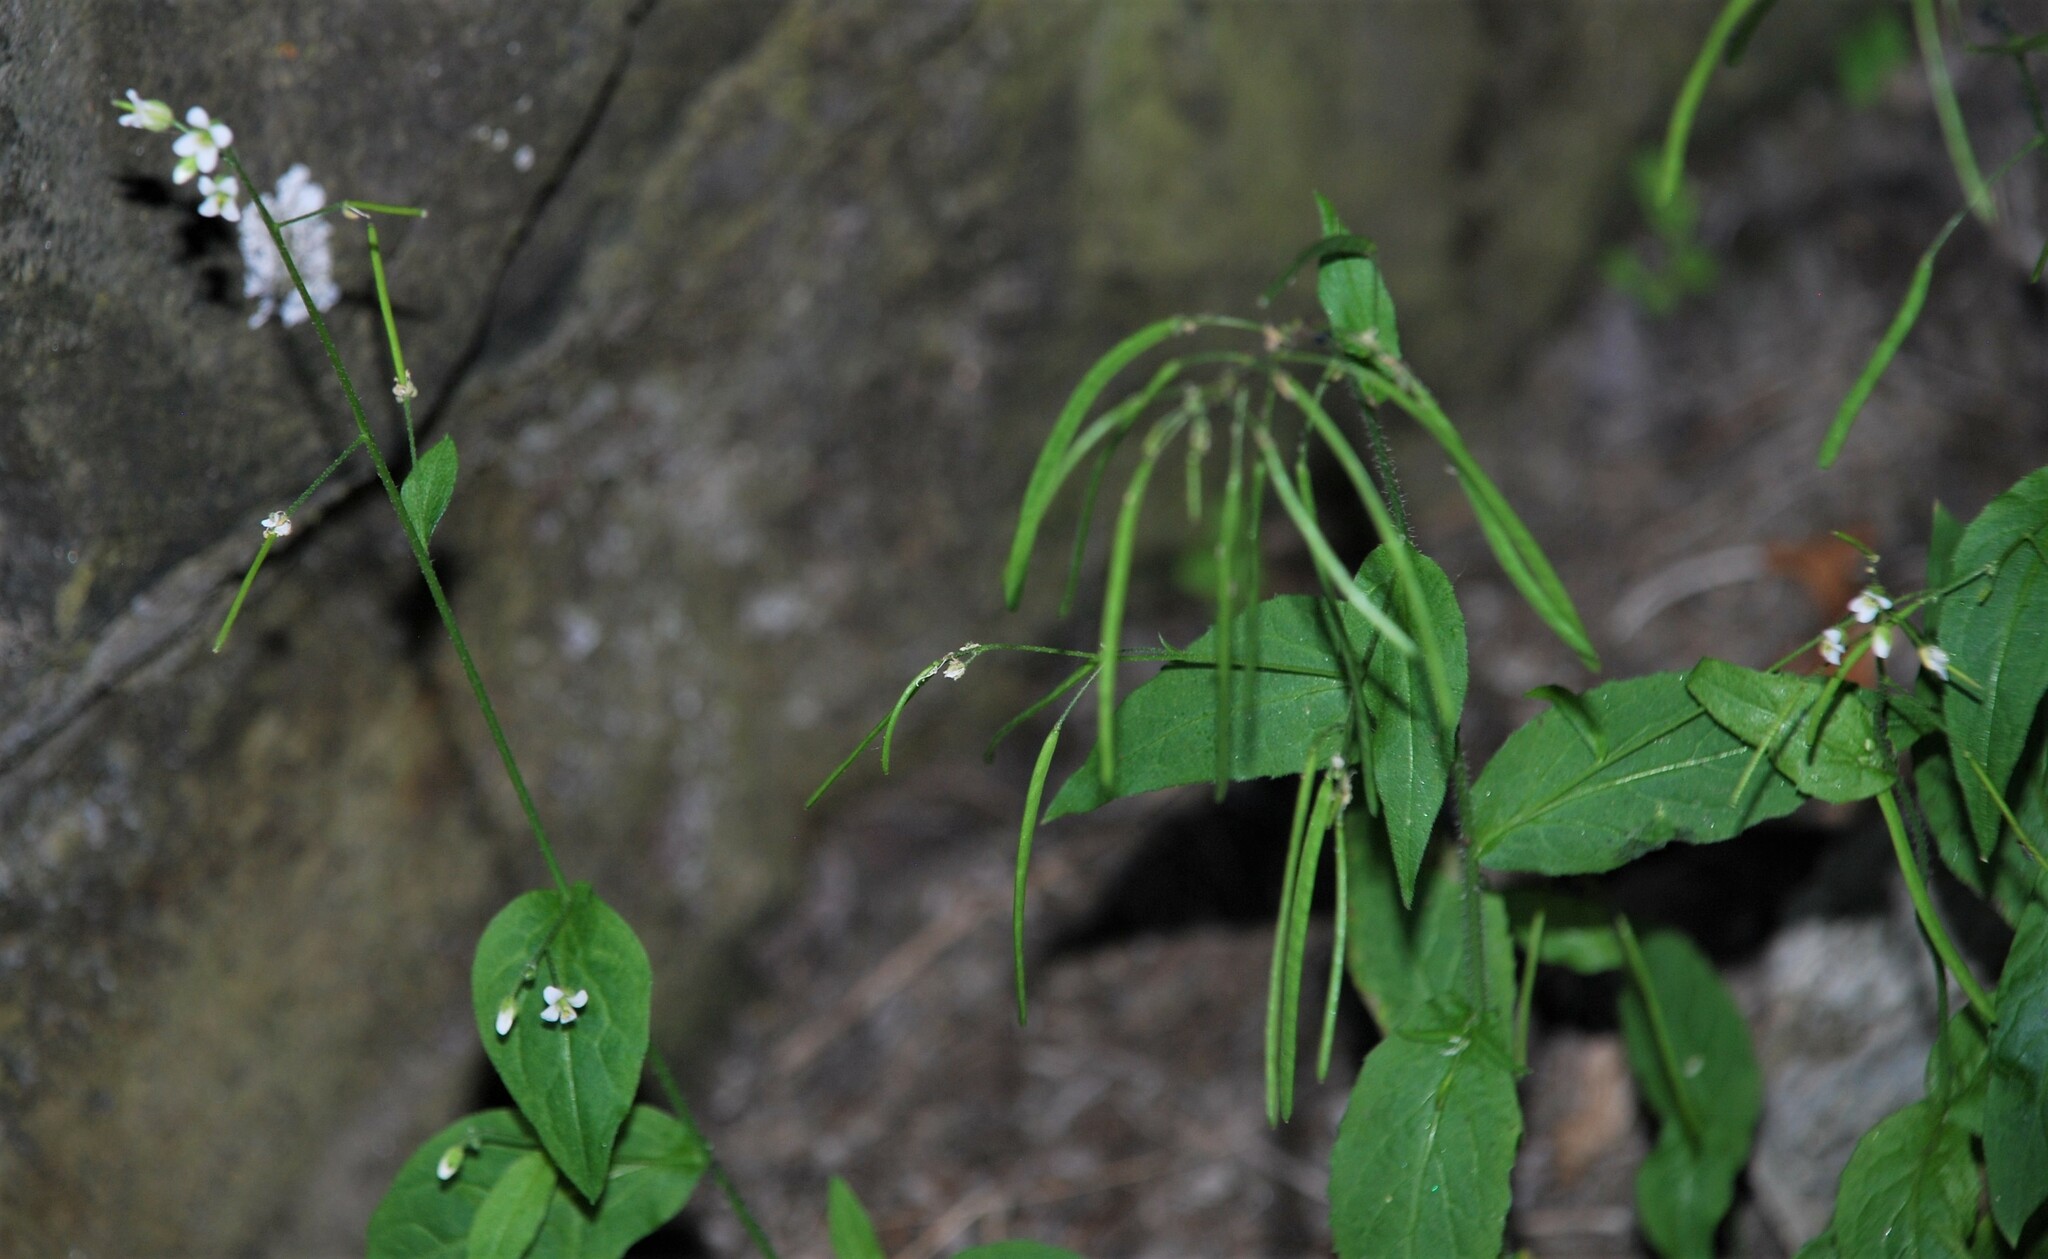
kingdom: Plantae
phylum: Tracheophyta
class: Magnoliopsida
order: Brassicales
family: Brassicaceae
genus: Catolobus
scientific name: Catolobus pendulus
